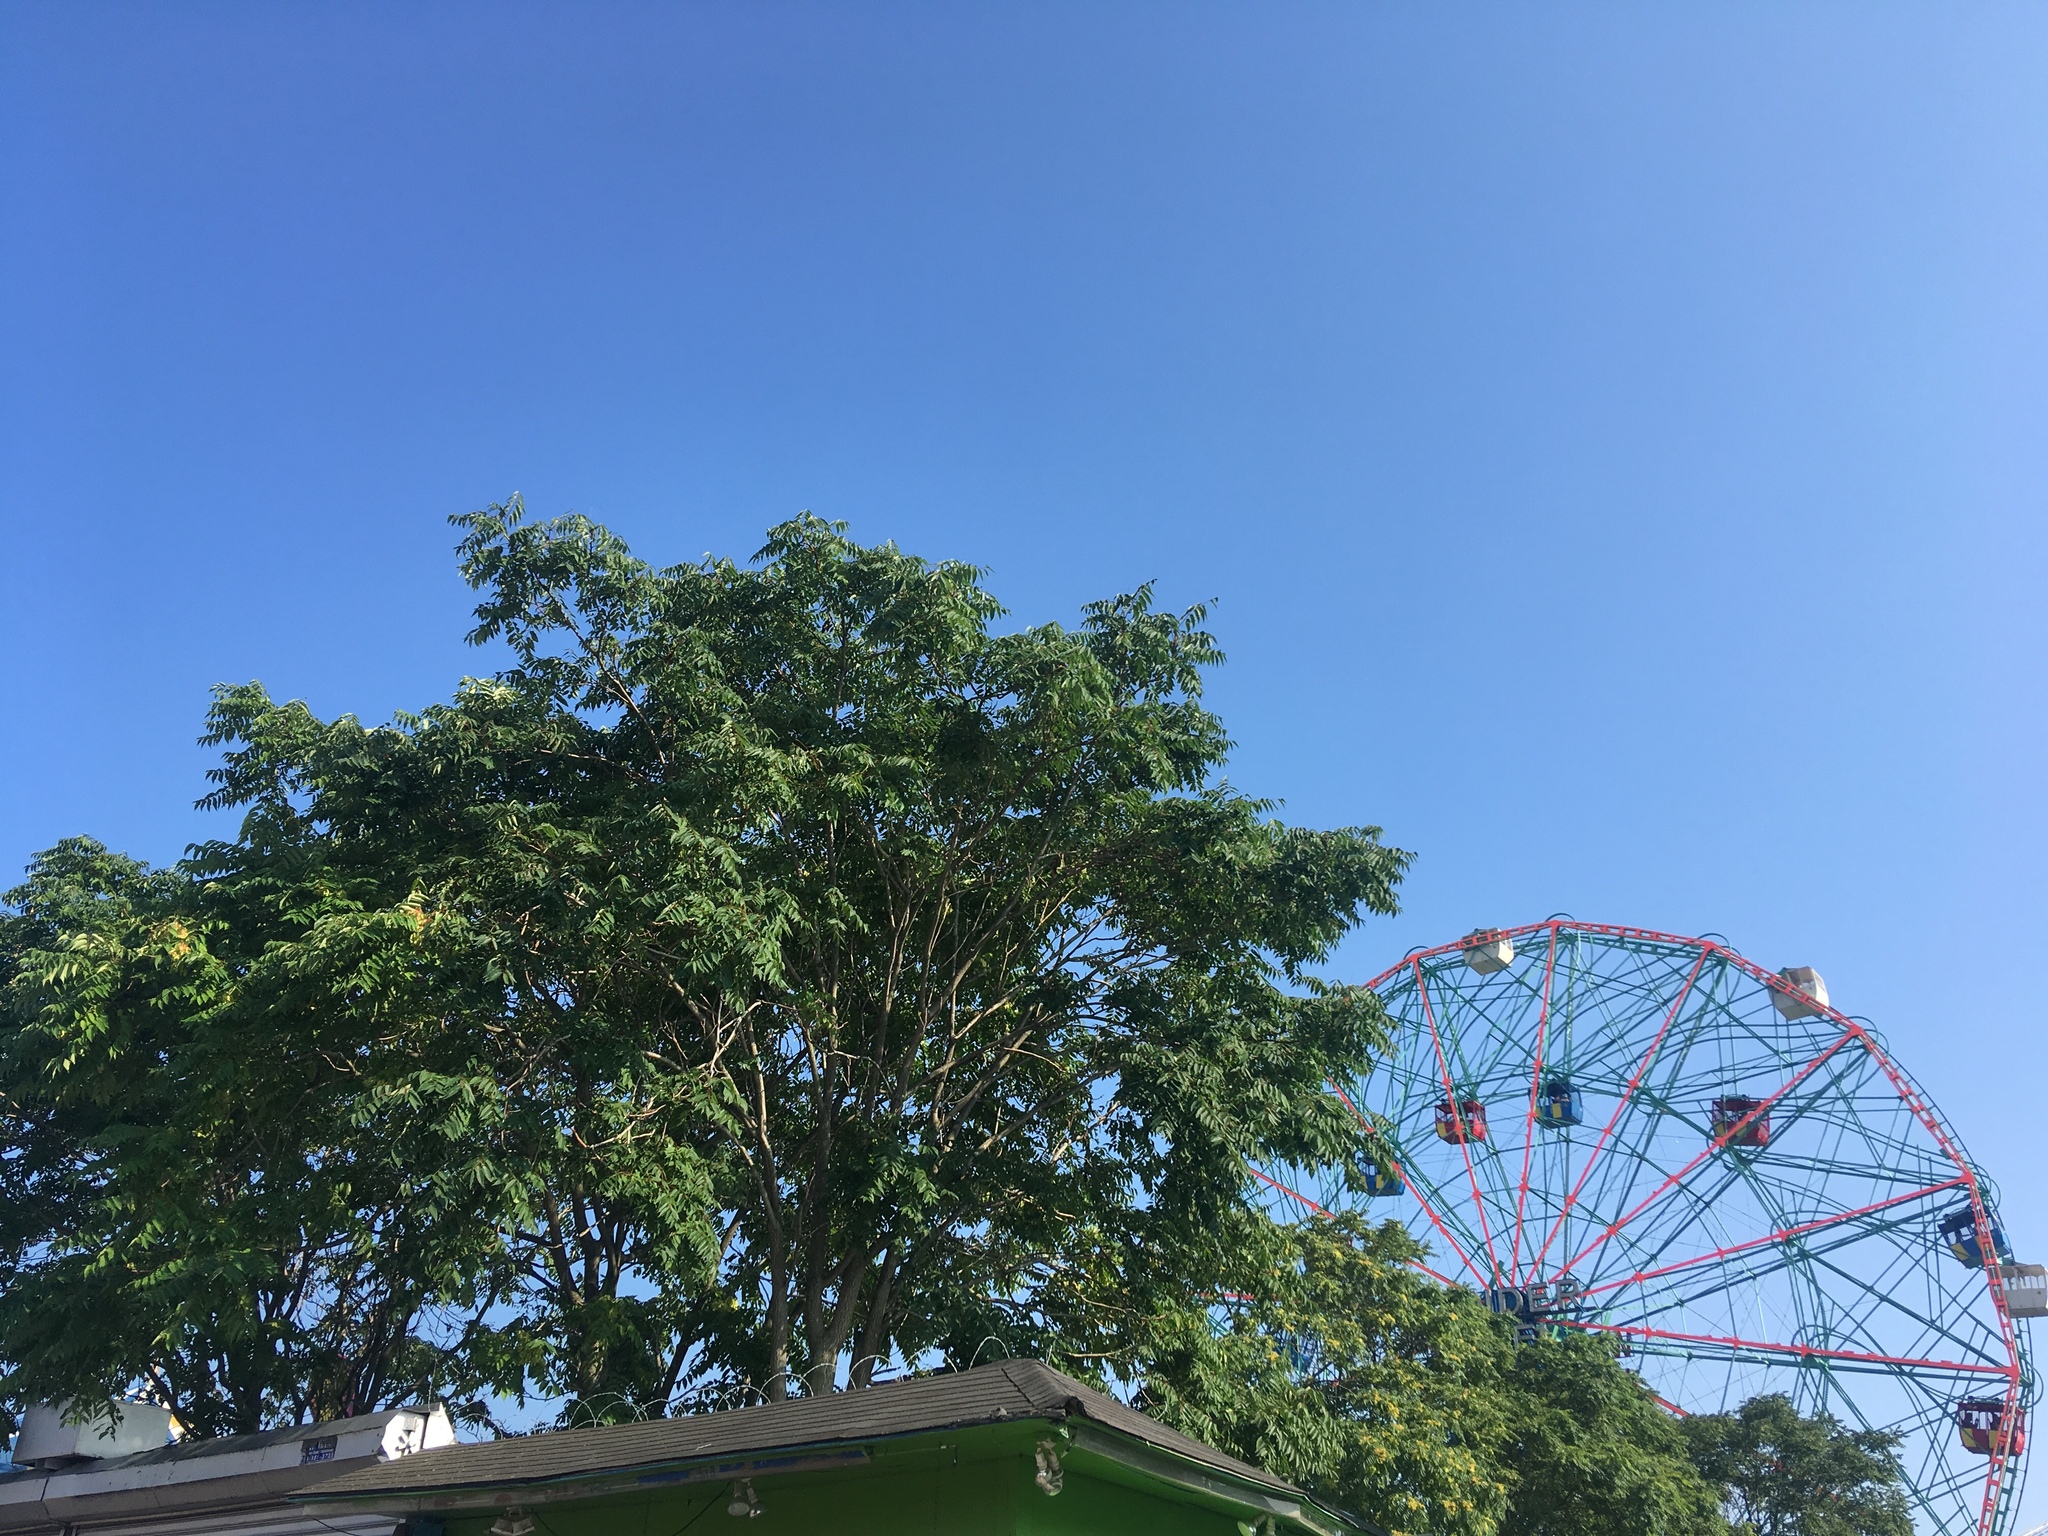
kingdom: Plantae
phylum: Tracheophyta
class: Magnoliopsida
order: Sapindales
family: Simaroubaceae
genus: Ailanthus
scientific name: Ailanthus altissima
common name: Tree-of-heaven
